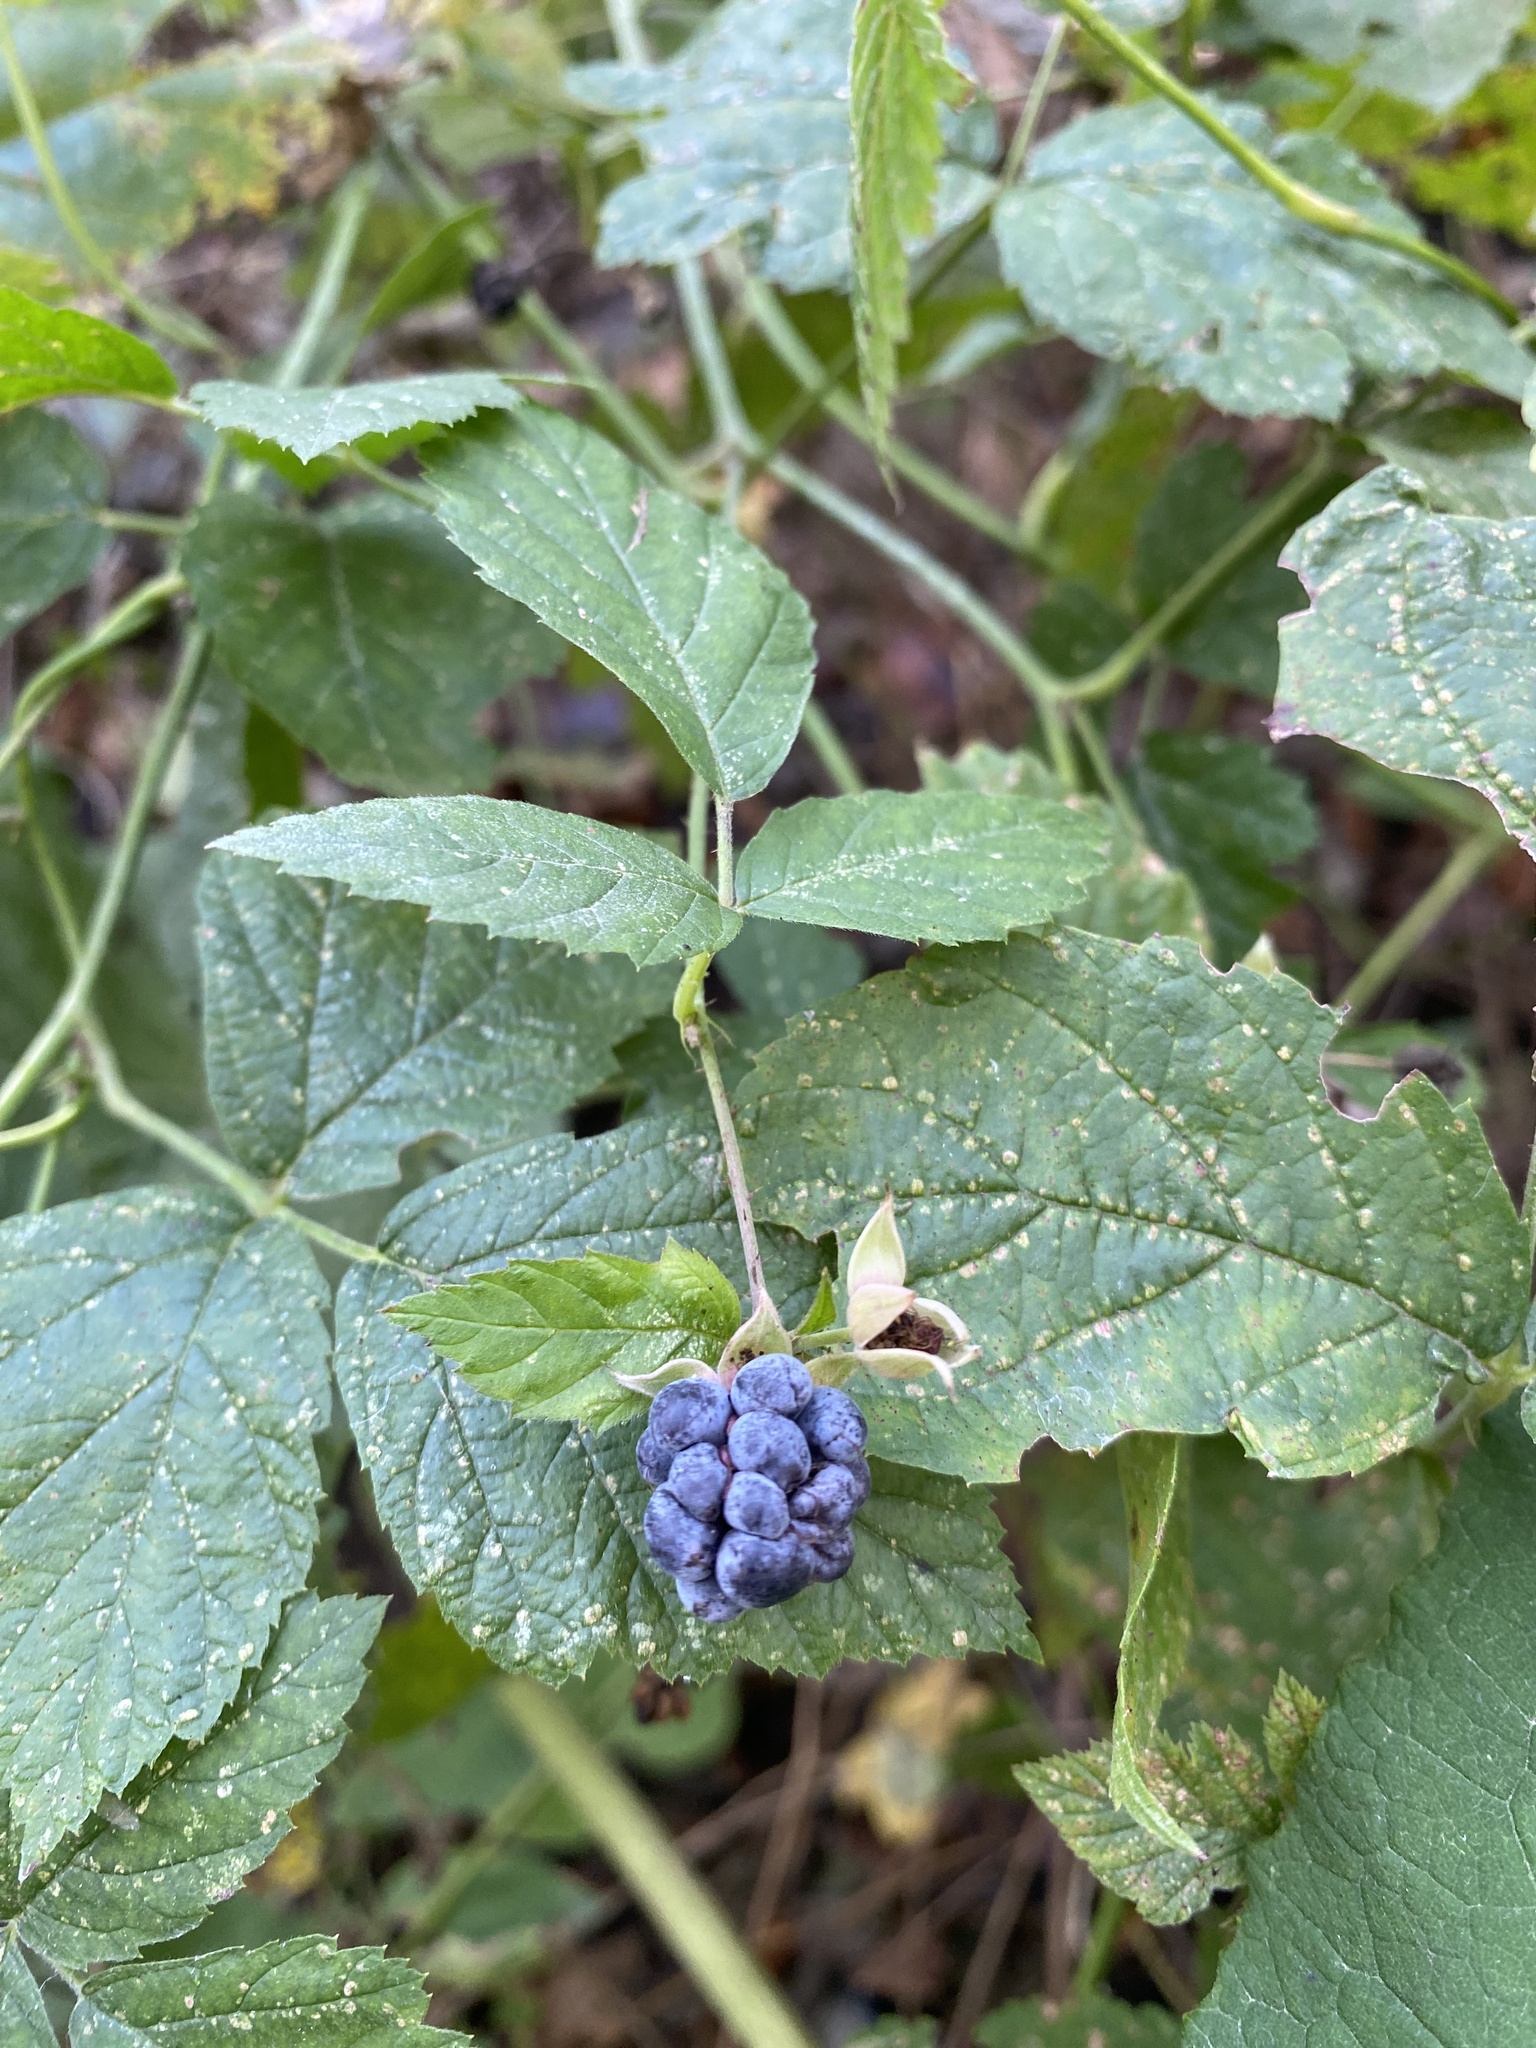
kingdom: Plantae
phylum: Tracheophyta
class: Magnoliopsida
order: Rosales
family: Rosaceae
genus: Rubus
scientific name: Rubus caesius
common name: Dewberry
